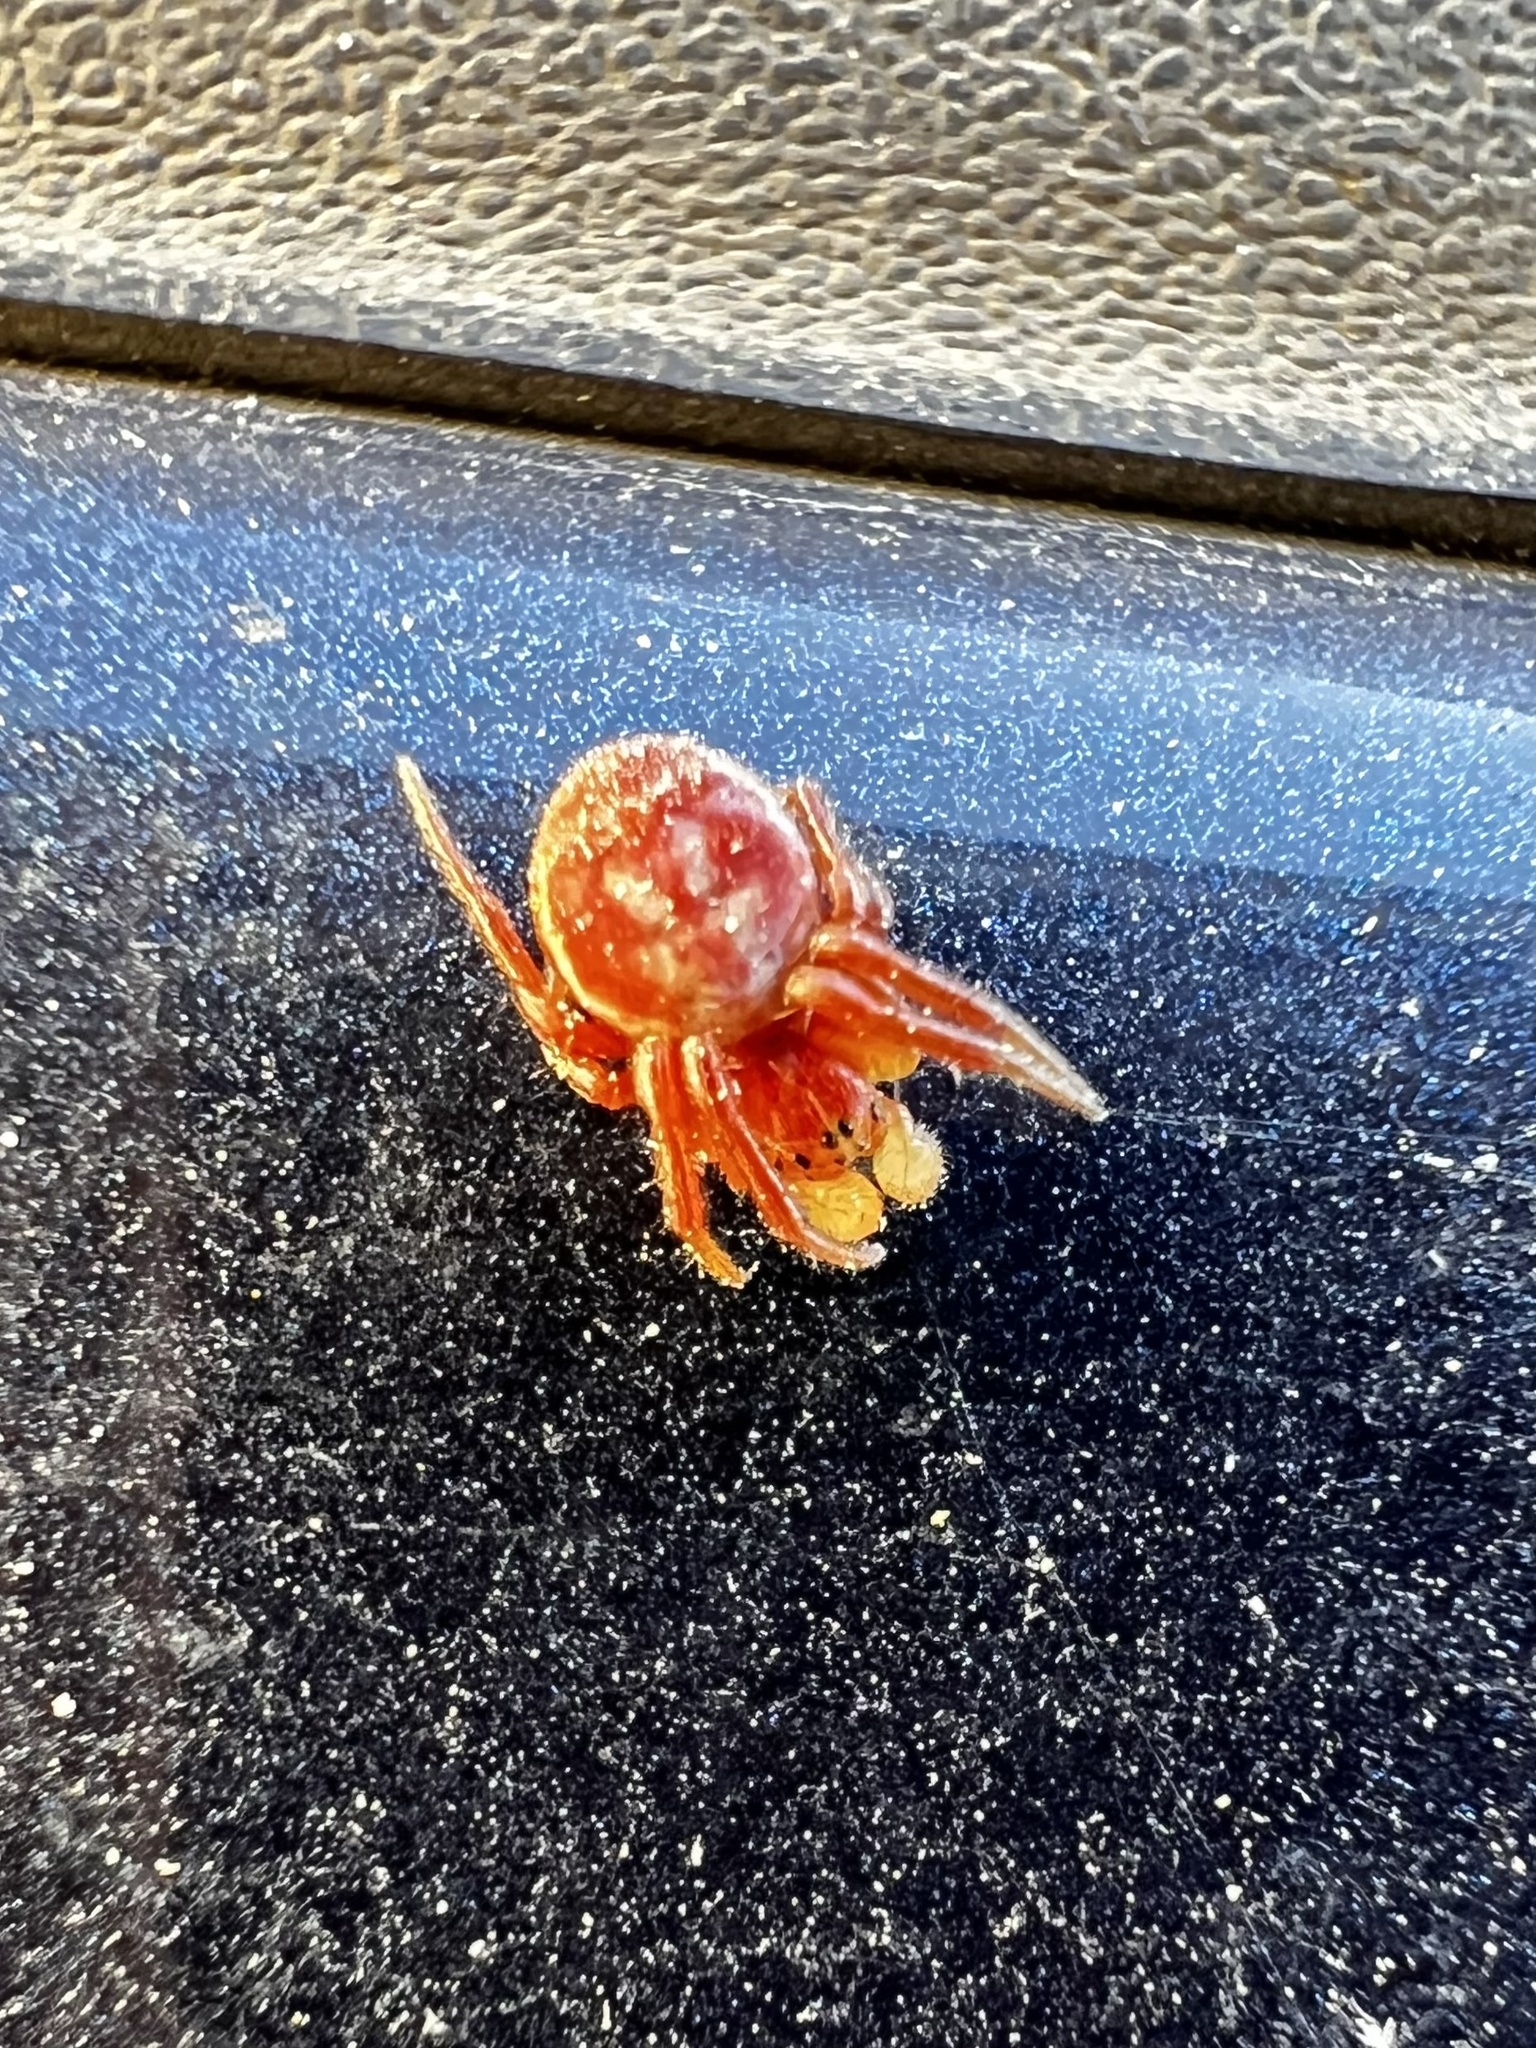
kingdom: Animalia
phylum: Arthropoda
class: Arachnida
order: Araneae
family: Araneidae
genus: Araniella
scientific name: Araniella displicata
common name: Sixspotted orb weaver
